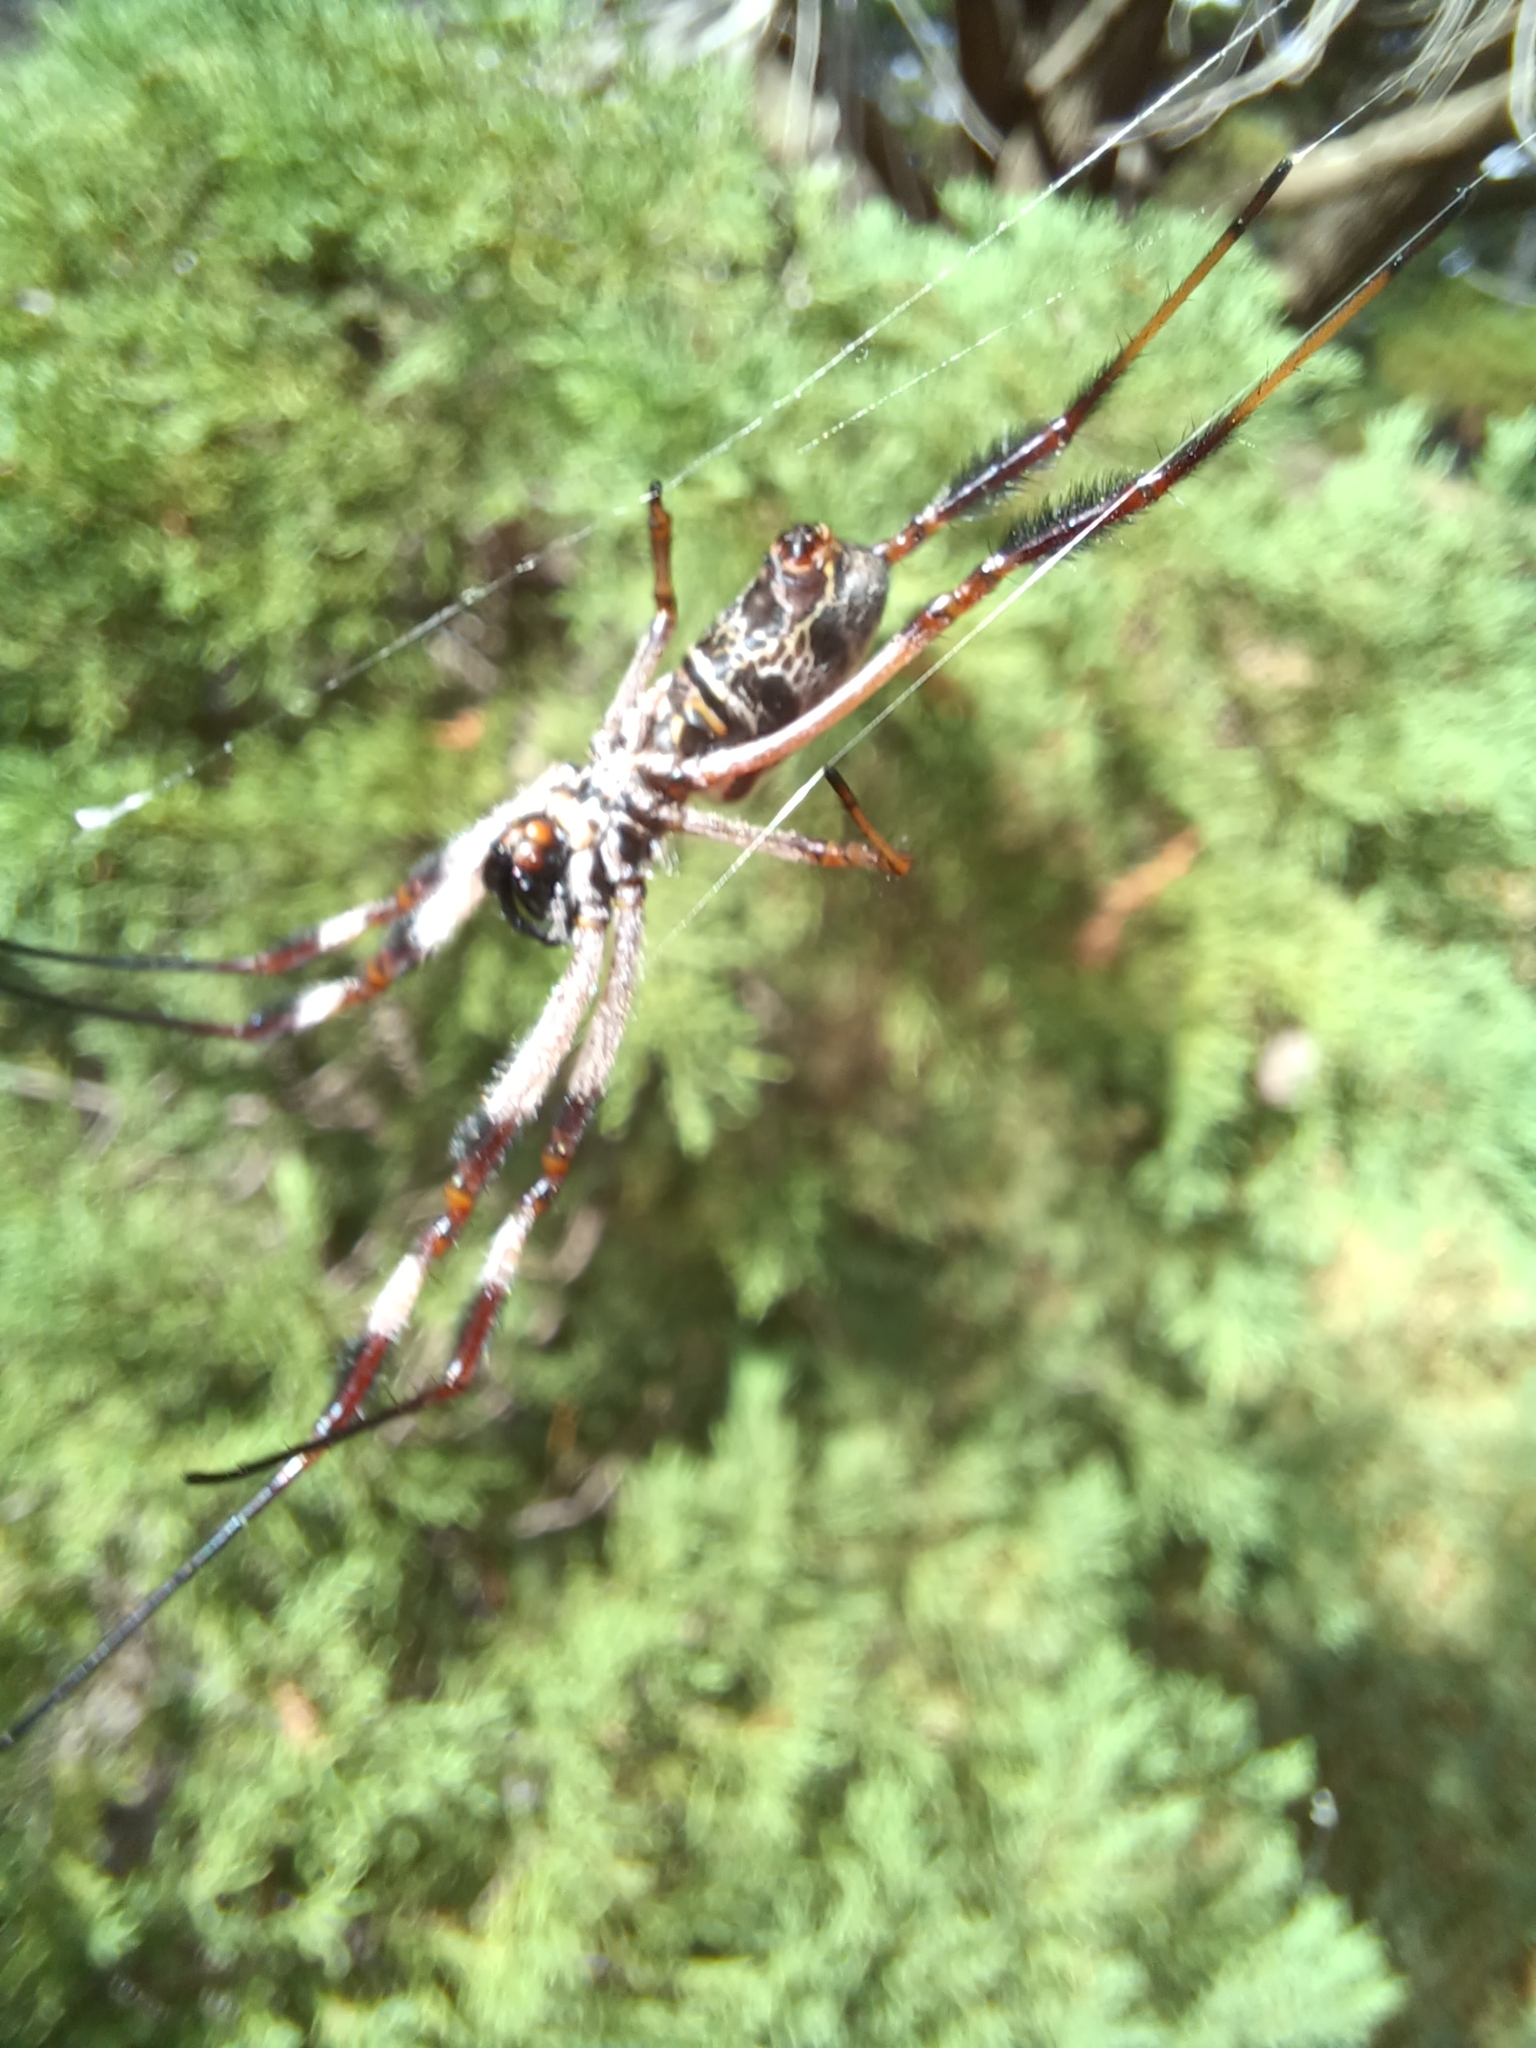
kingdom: Animalia
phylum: Arthropoda
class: Arachnida
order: Araneae
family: Araneidae
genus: Trichonephila
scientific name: Trichonephila edulis
